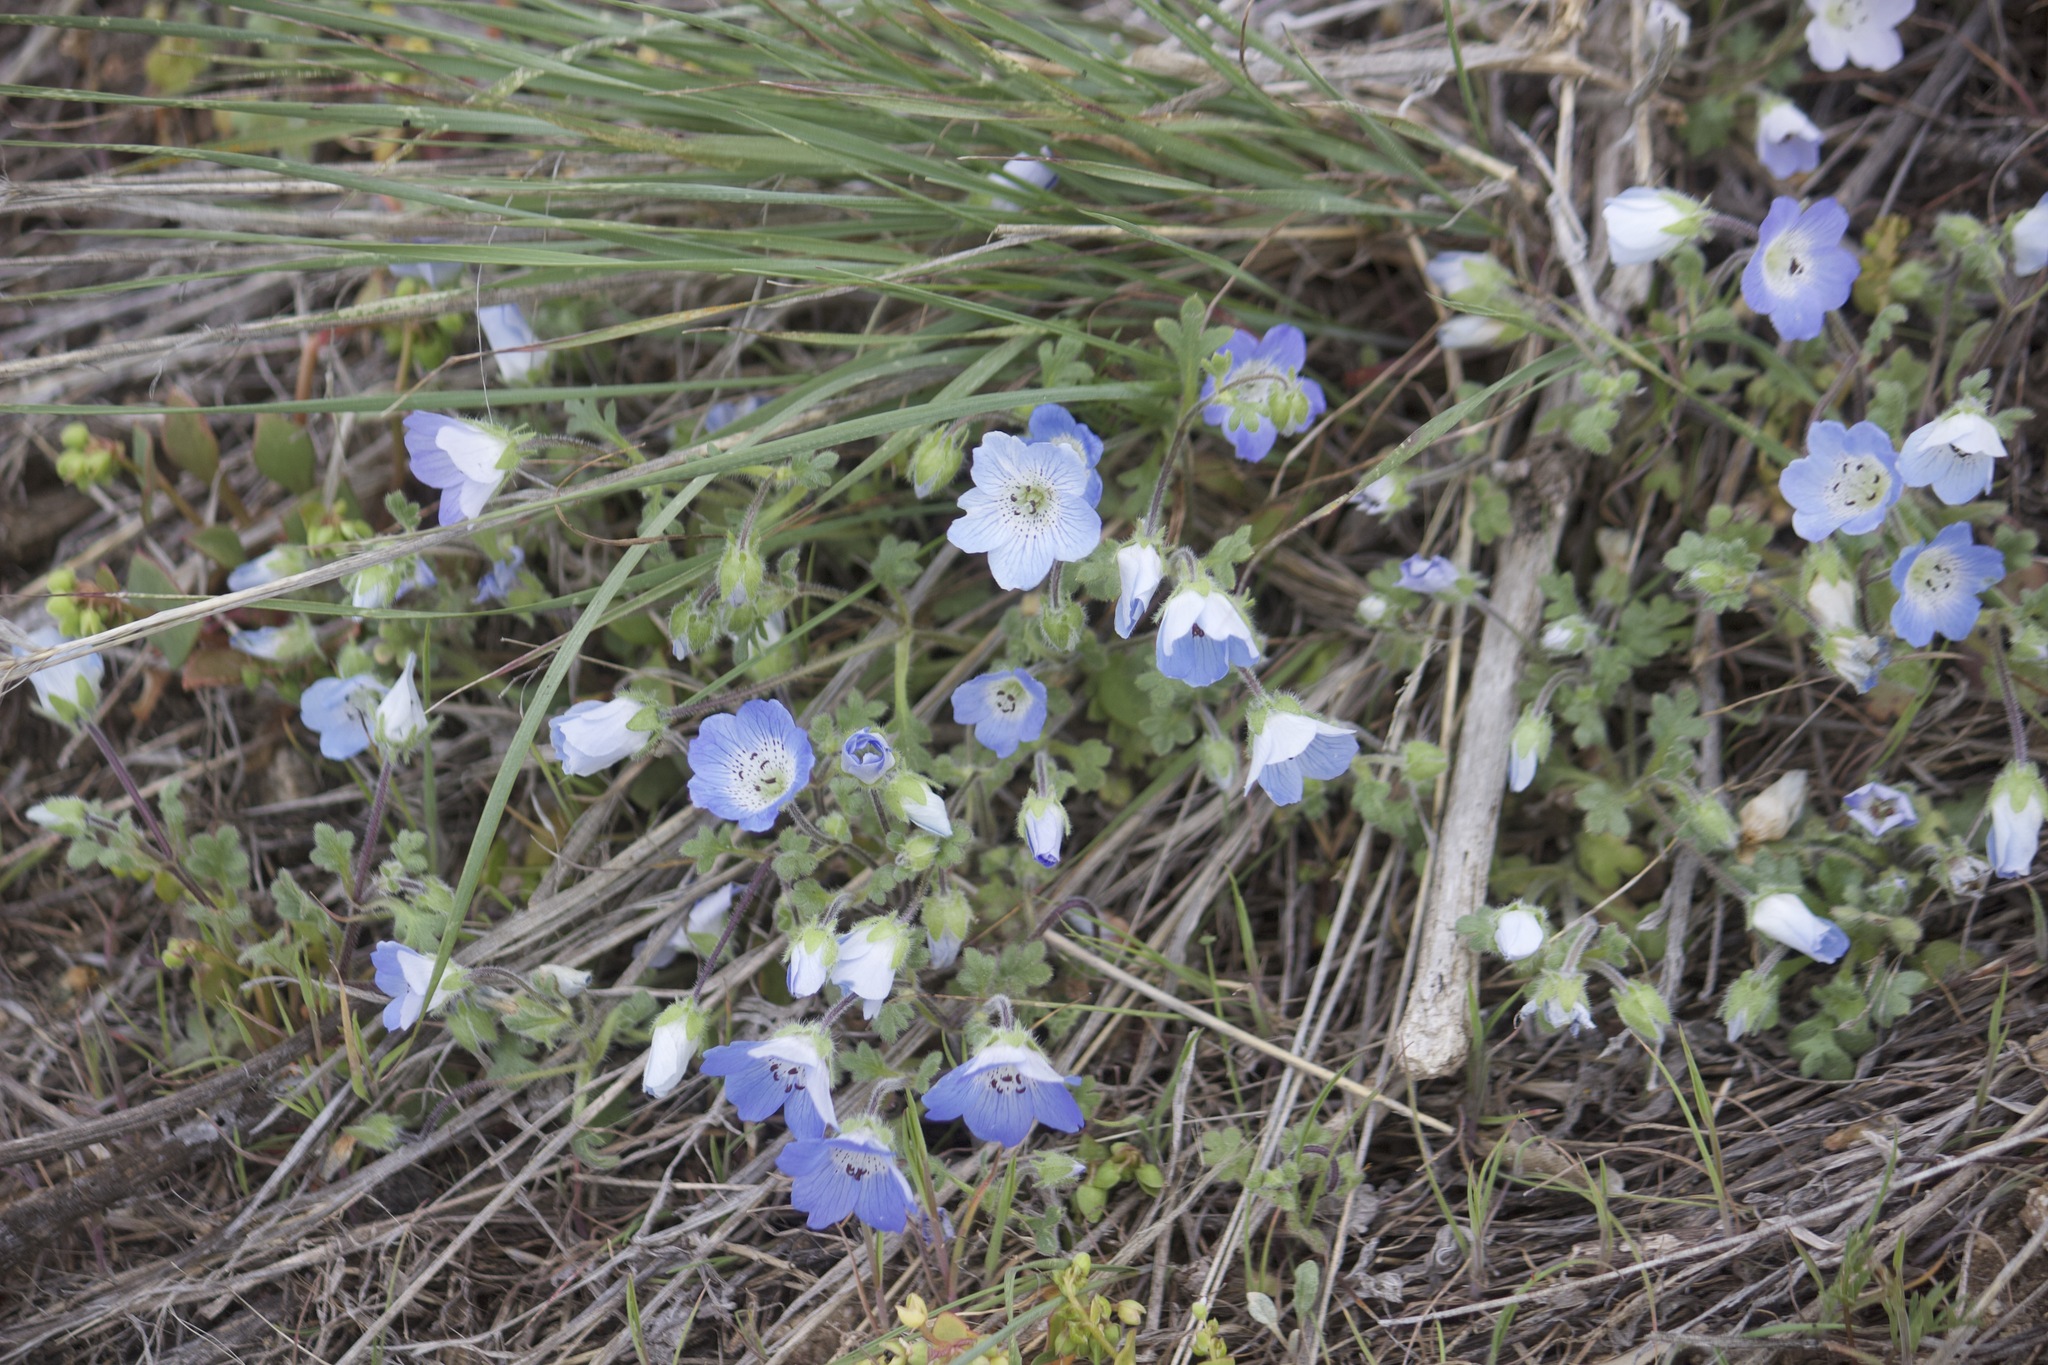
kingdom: Plantae
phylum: Tracheophyta
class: Magnoliopsida
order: Boraginales
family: Hydrophyllaceae
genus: Nemophila
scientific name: Nemophila menziesii
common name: Baby's-blue-eyes
